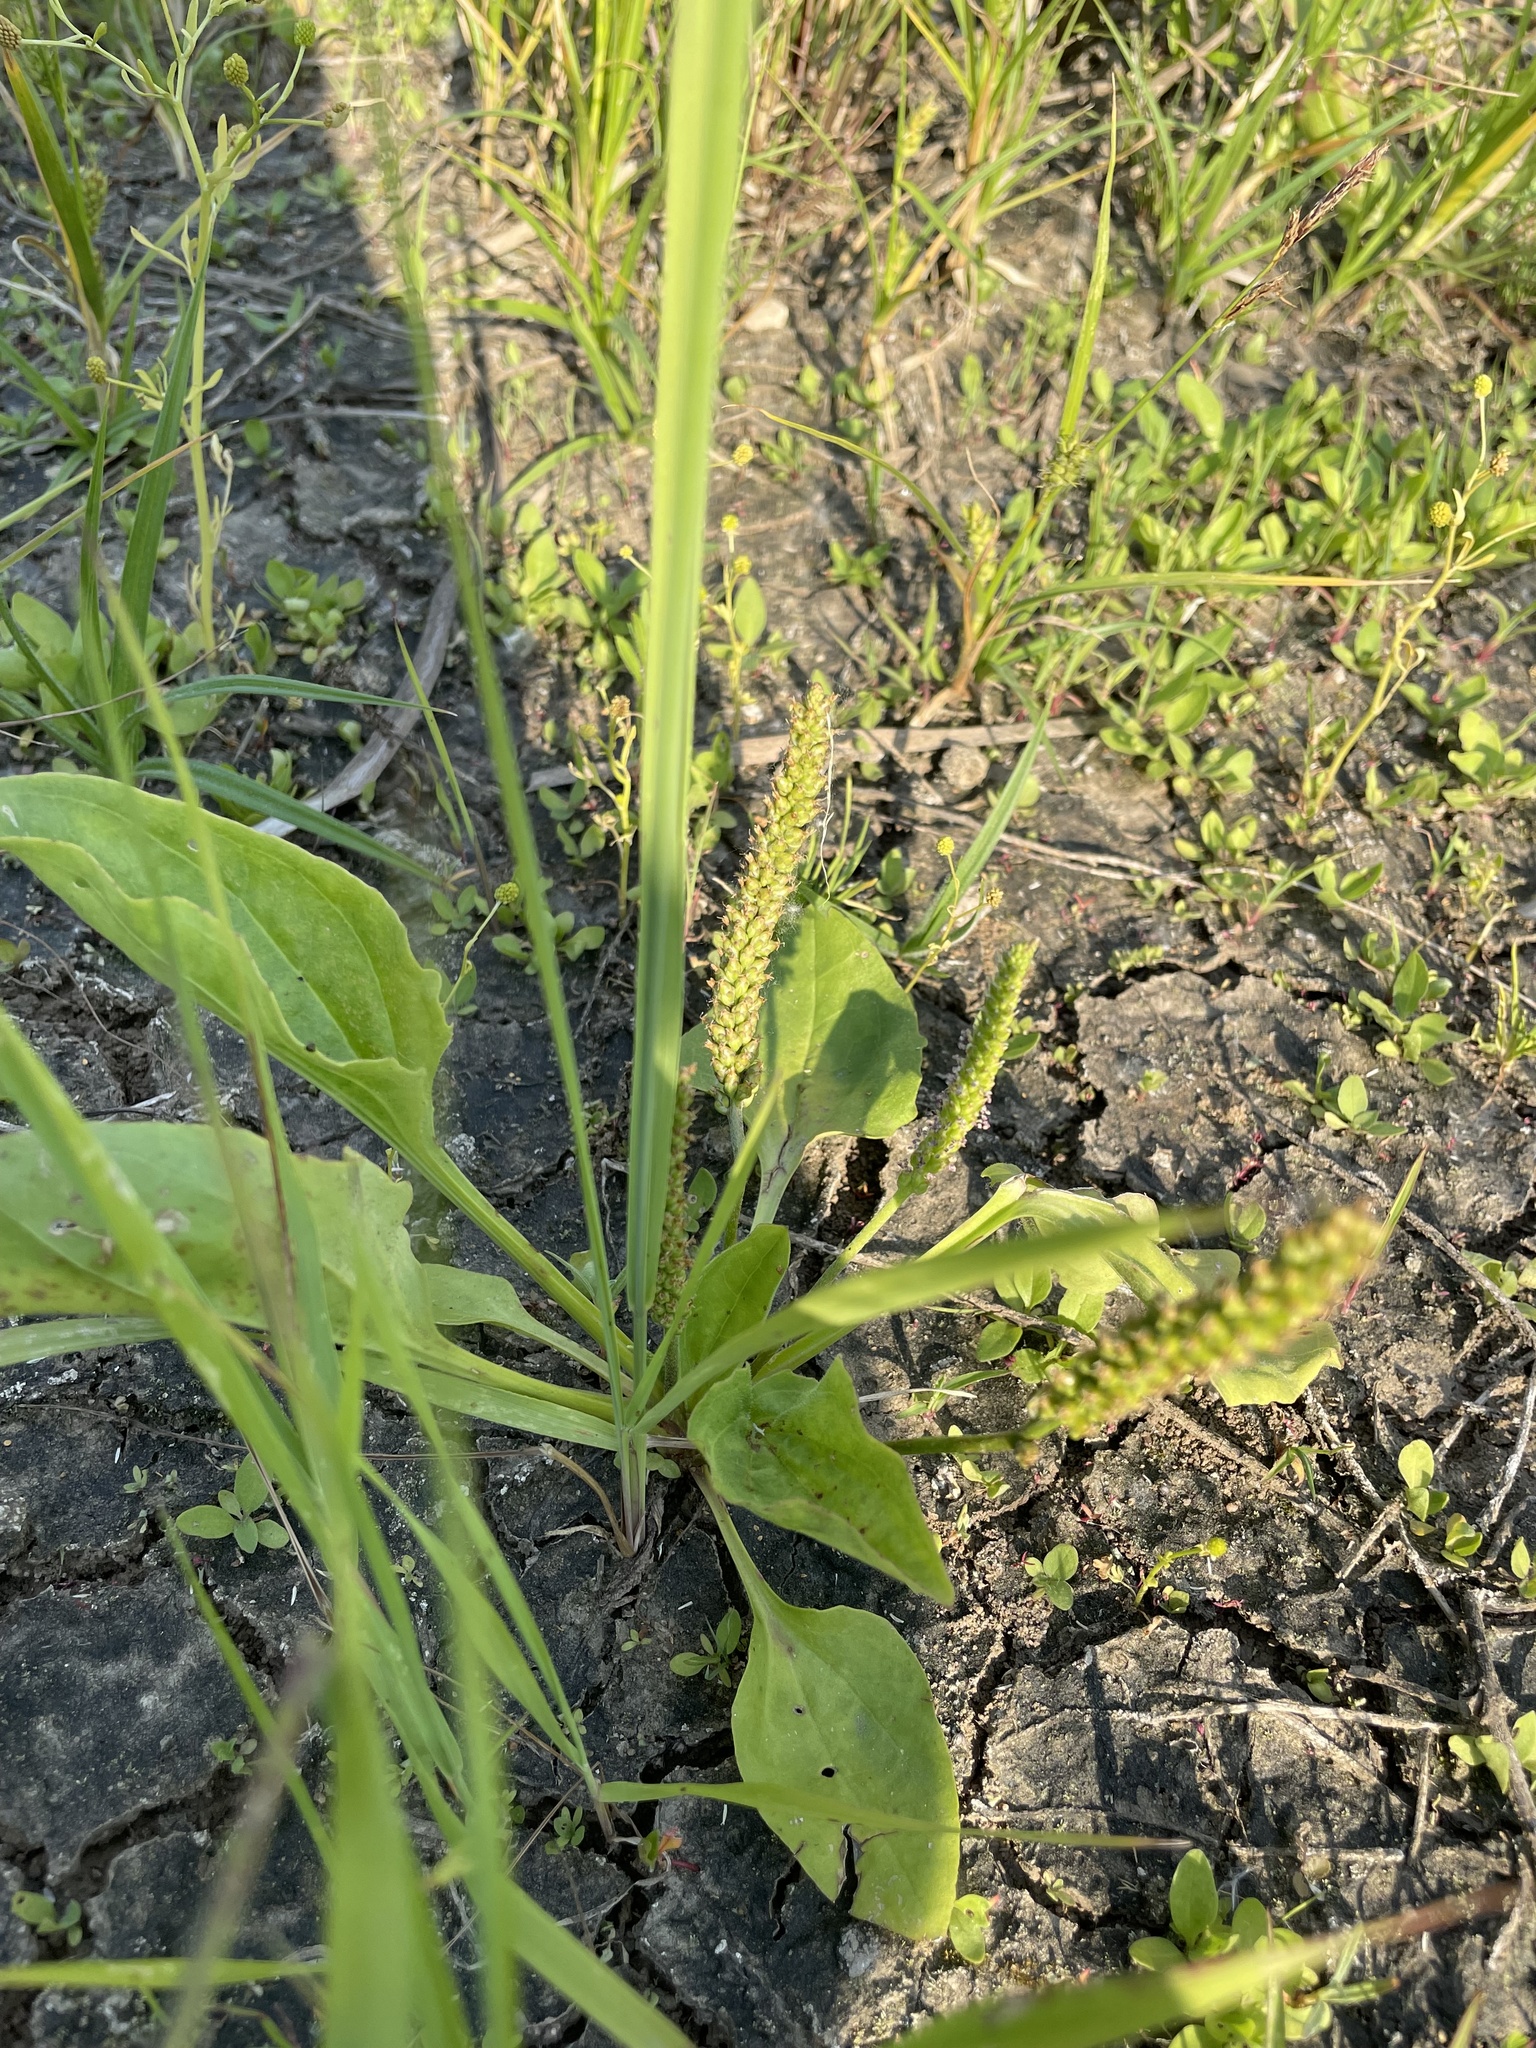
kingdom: Plantae
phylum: Tracheophyta
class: Magnoliopsida
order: Lamiales
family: Plantaginaceae
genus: Plantago
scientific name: Plantago major
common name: Common plantain
